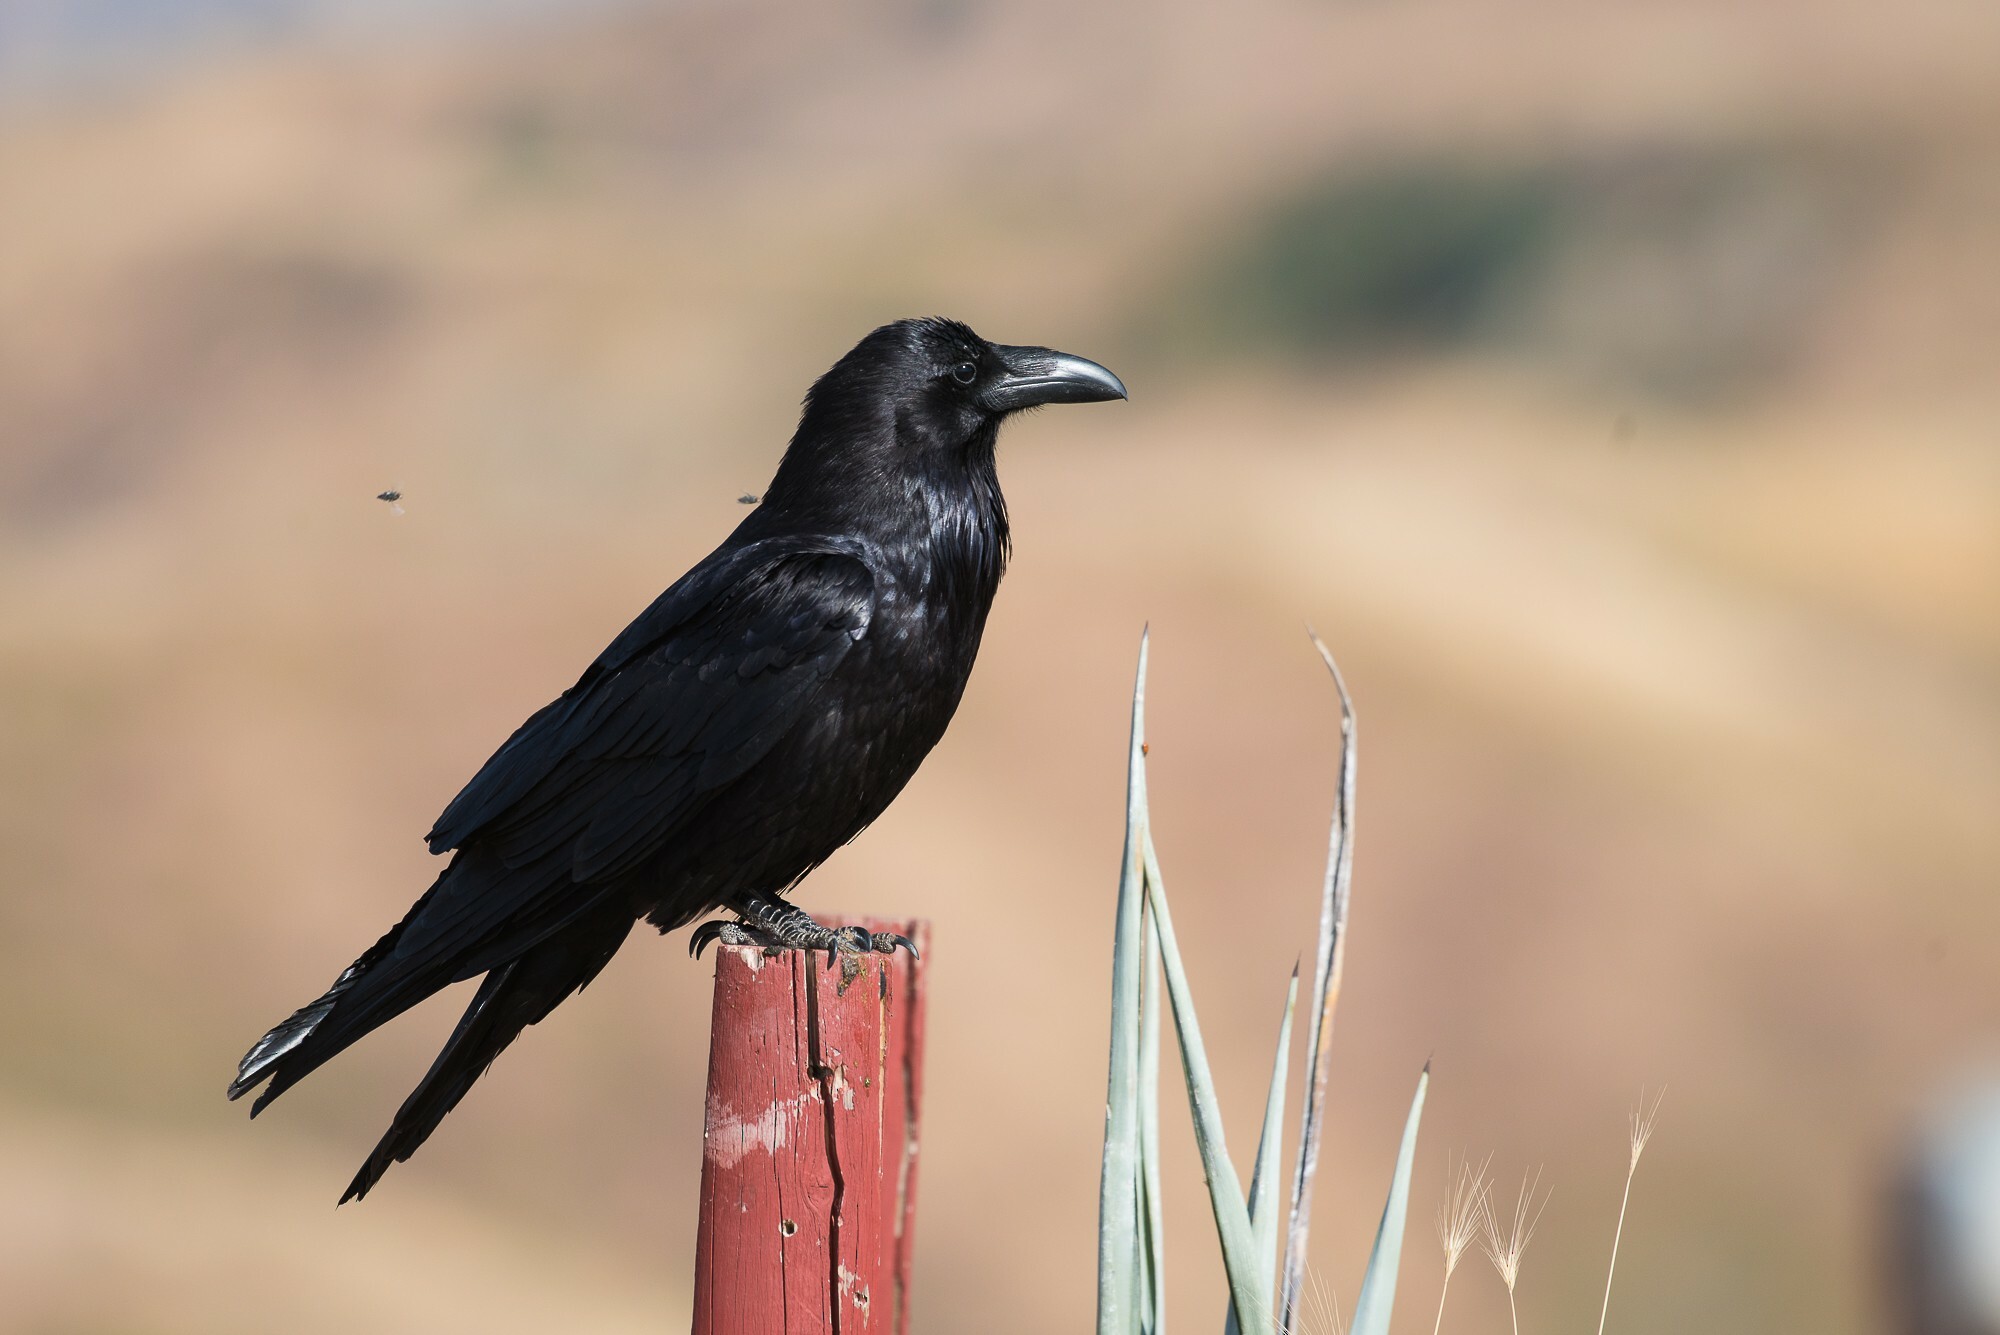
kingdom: Animalia
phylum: Chordata
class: Aves
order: Passeriformes
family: Corvidae
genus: Corvus
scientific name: Corvus corax
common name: Common raven
